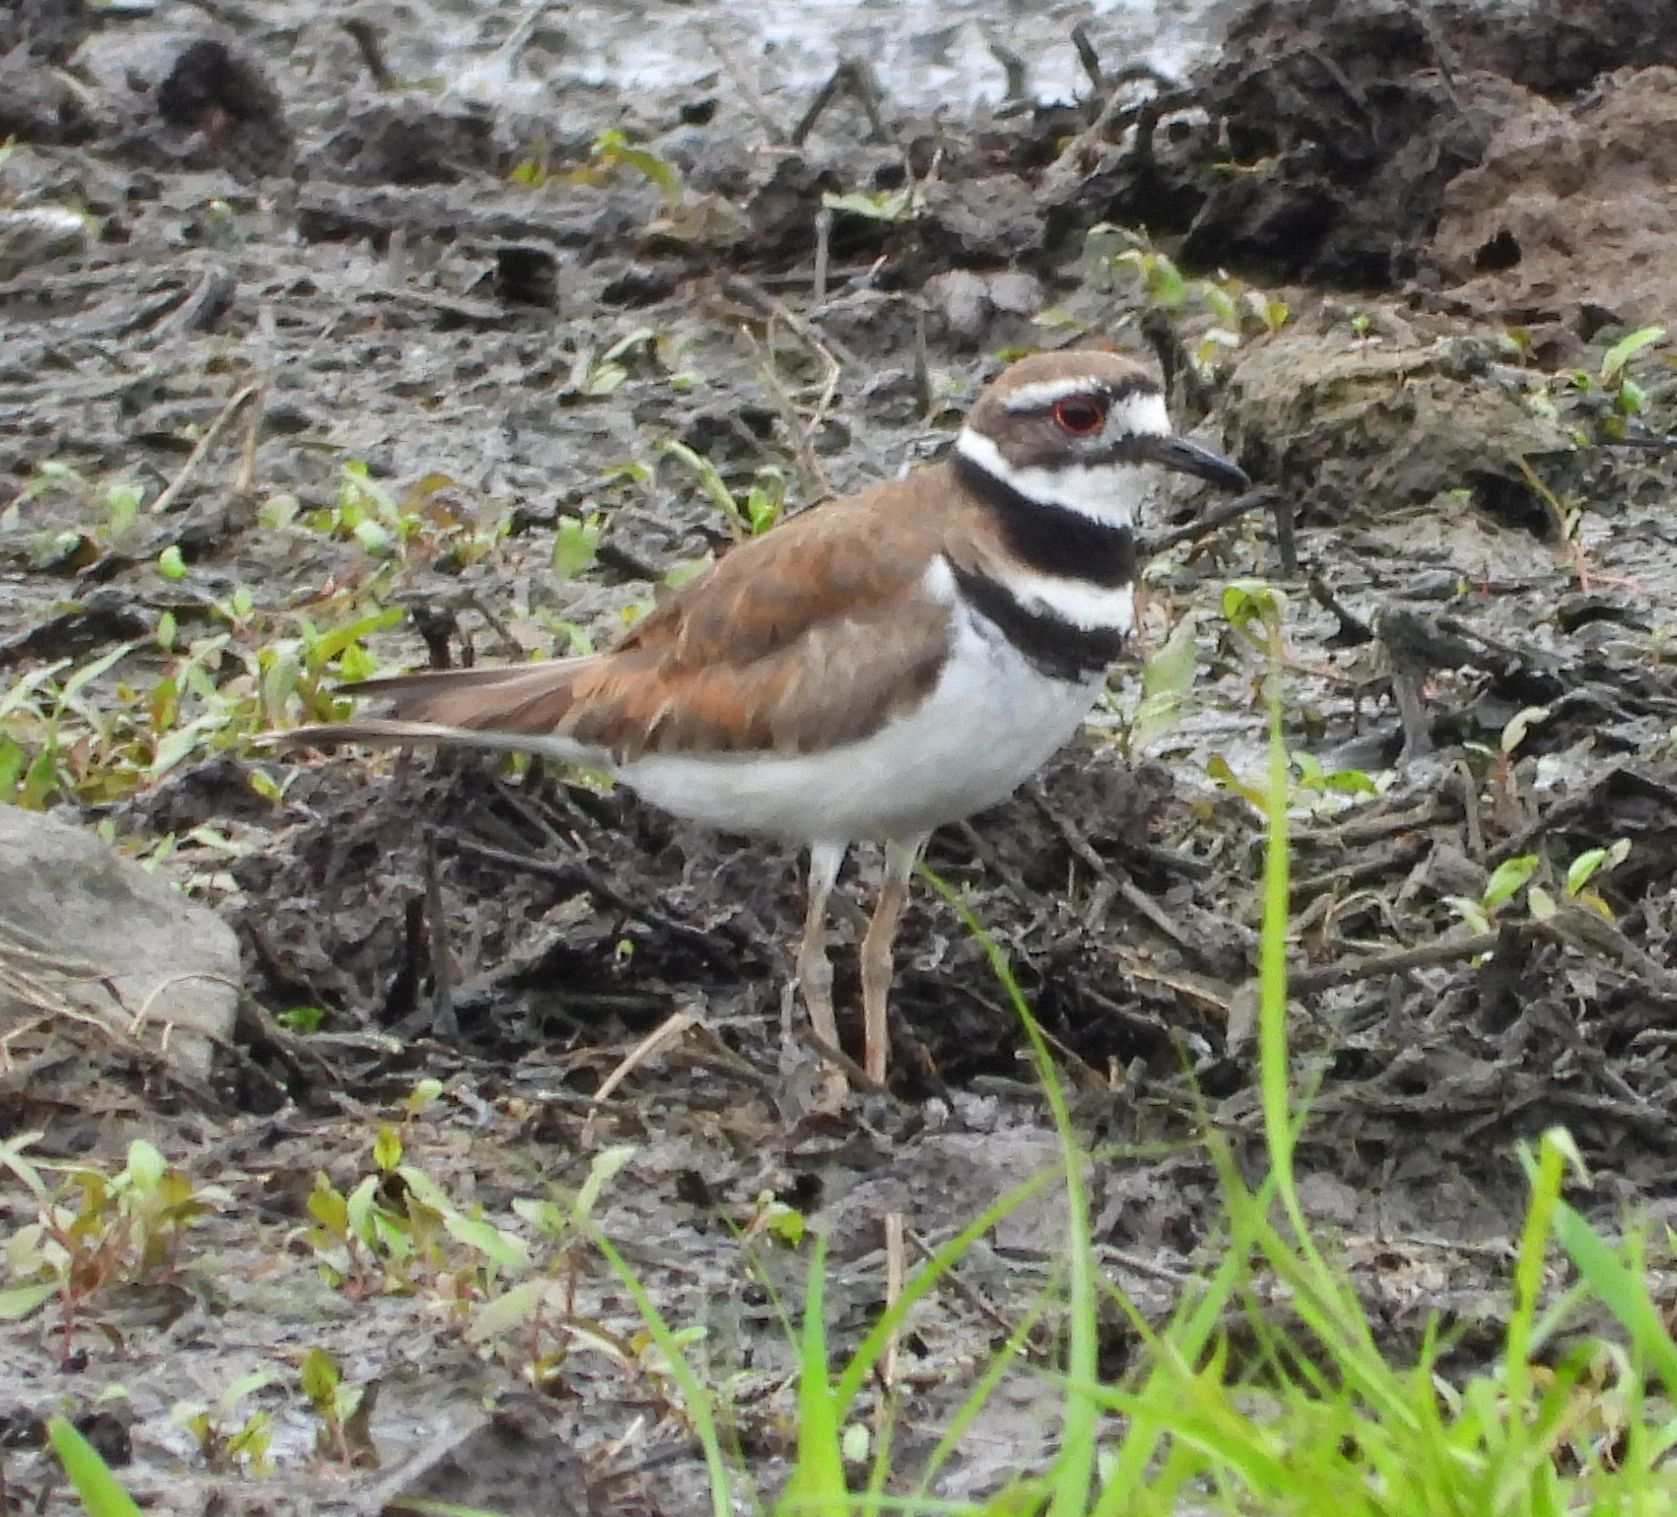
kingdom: Animalia
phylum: Chordata
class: Aves
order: Charadriiformes
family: Charadriidae
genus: Charadrius
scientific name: Charadrius vociferus
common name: Killdeer
